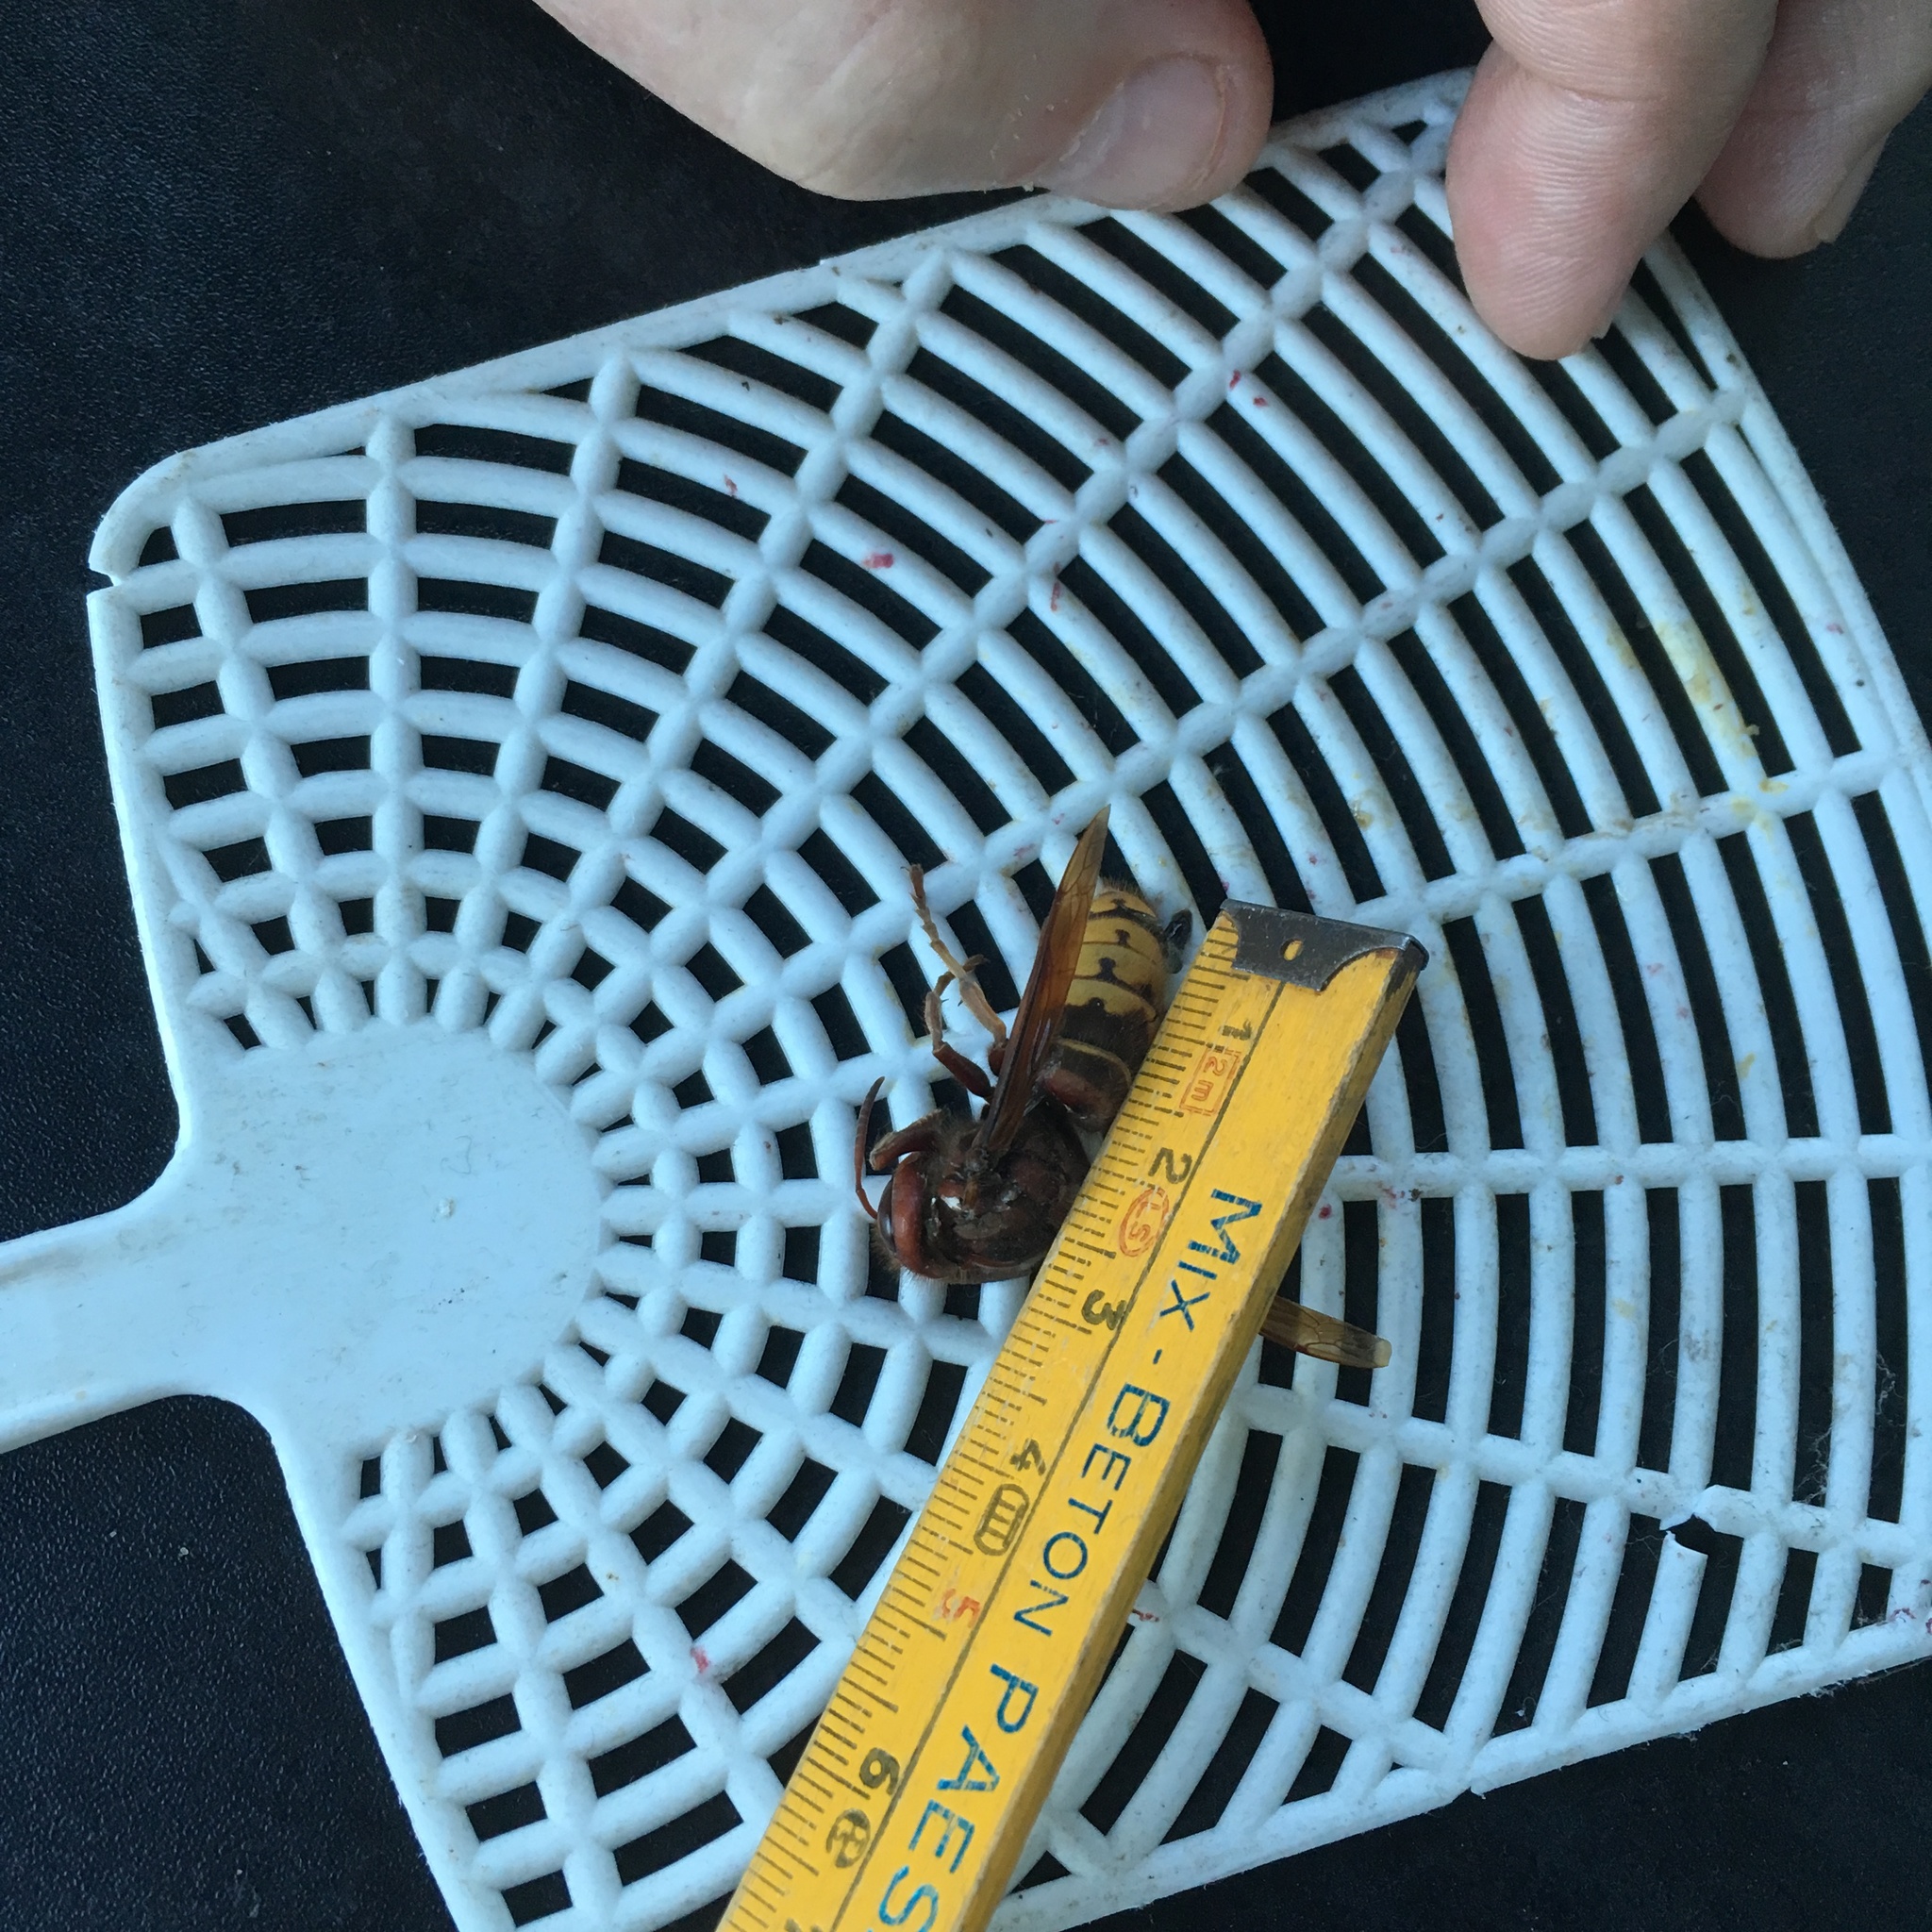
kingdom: Animalia
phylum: Arthropoda
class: Insecta
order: Hymenoptera
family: Vespidae
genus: Vespa
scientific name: Vespa crabro
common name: Hornet
